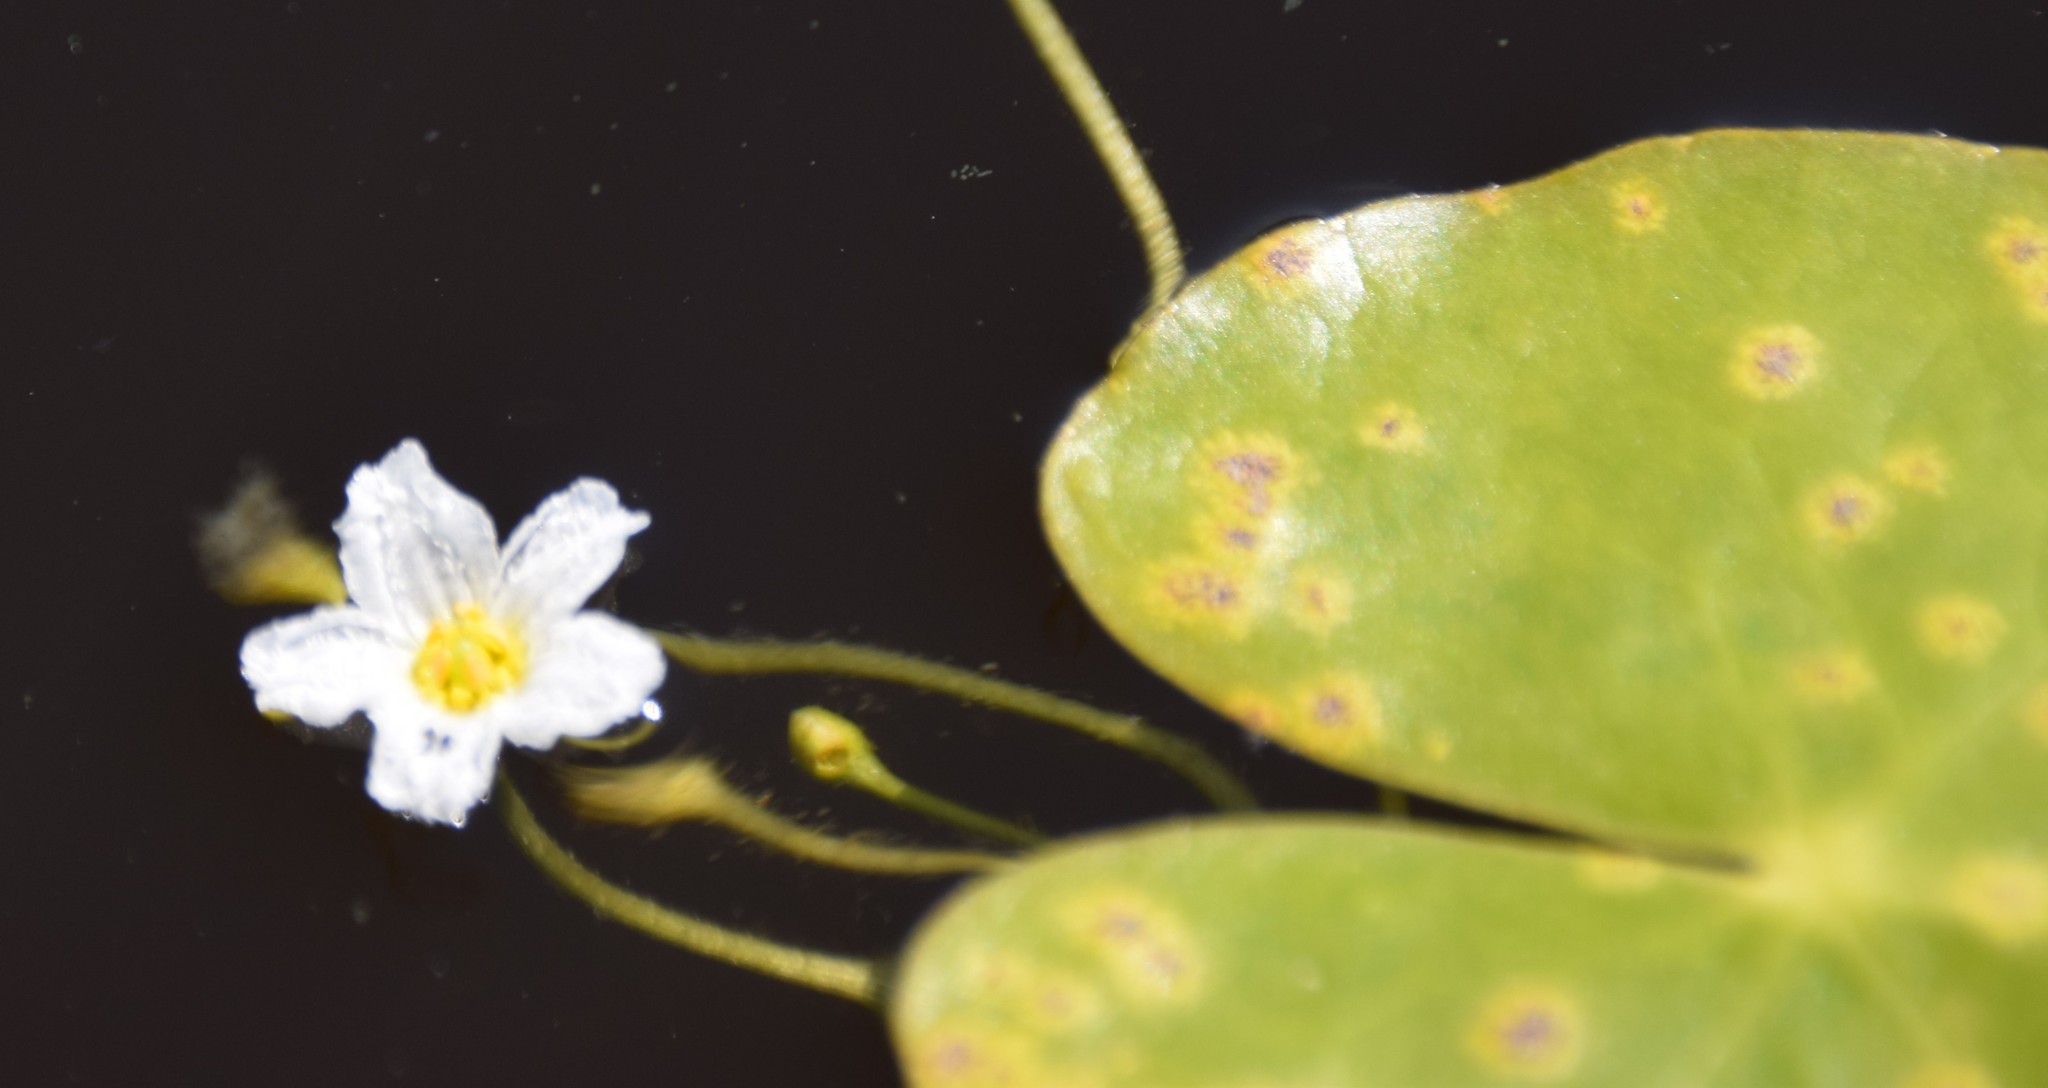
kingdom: Plantae
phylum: Tracheophyta
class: Magnoliopsida
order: Asterales
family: Menyanthaceae
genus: Nymphoides
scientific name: Nymphoides cordata
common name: Eight-angled floatingheart
